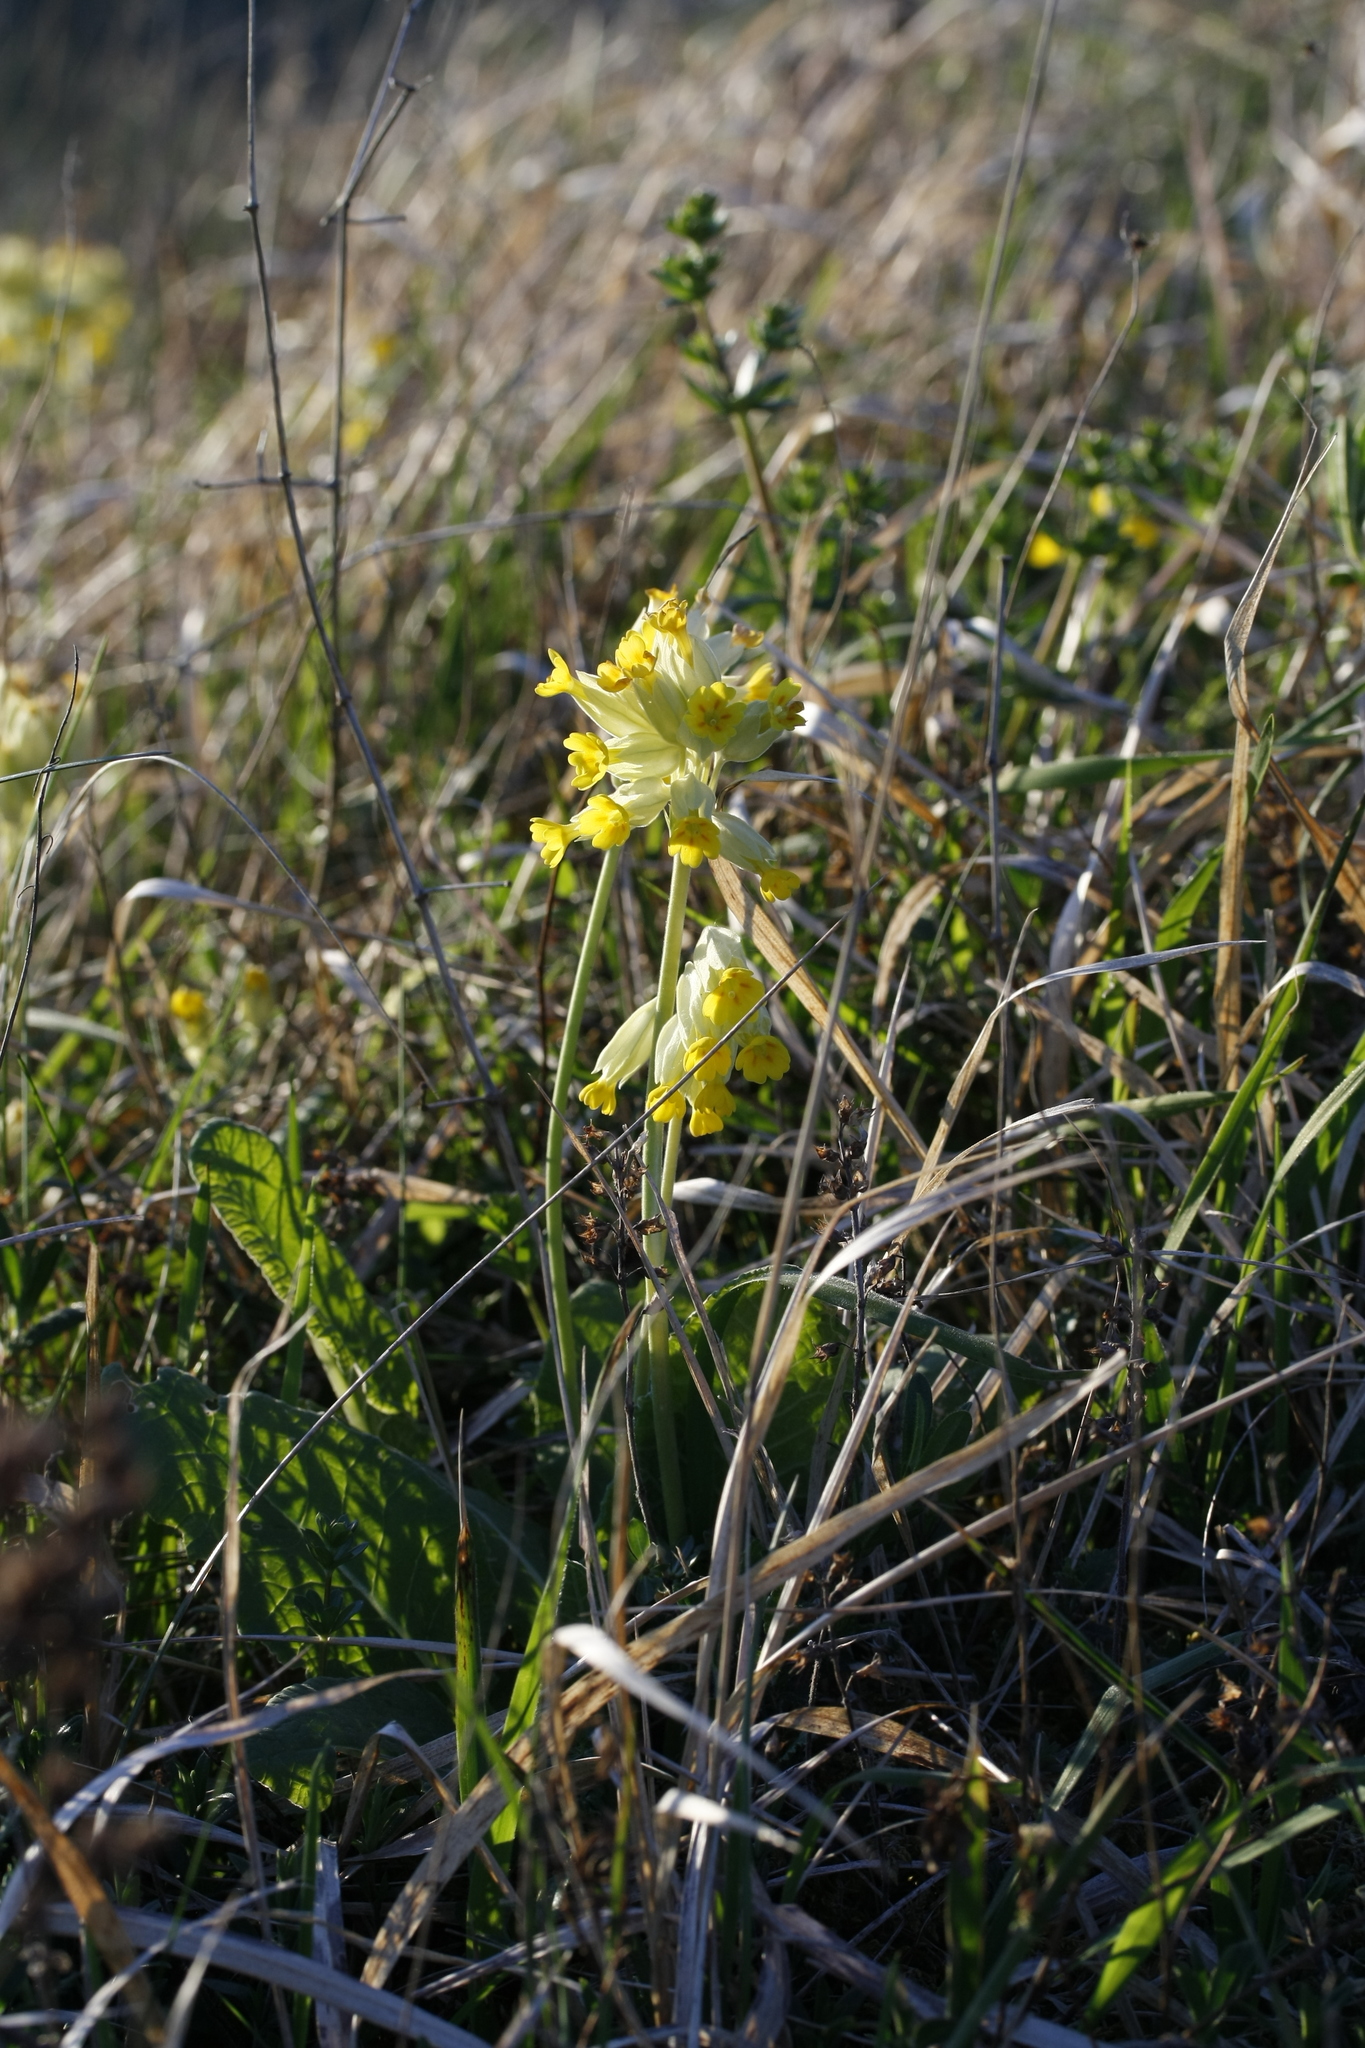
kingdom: Plantae
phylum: Tracheophyta
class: Magnoliopsida
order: Ericales
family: Primulaceae
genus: Primula
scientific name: Primula veris
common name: Cowslip
